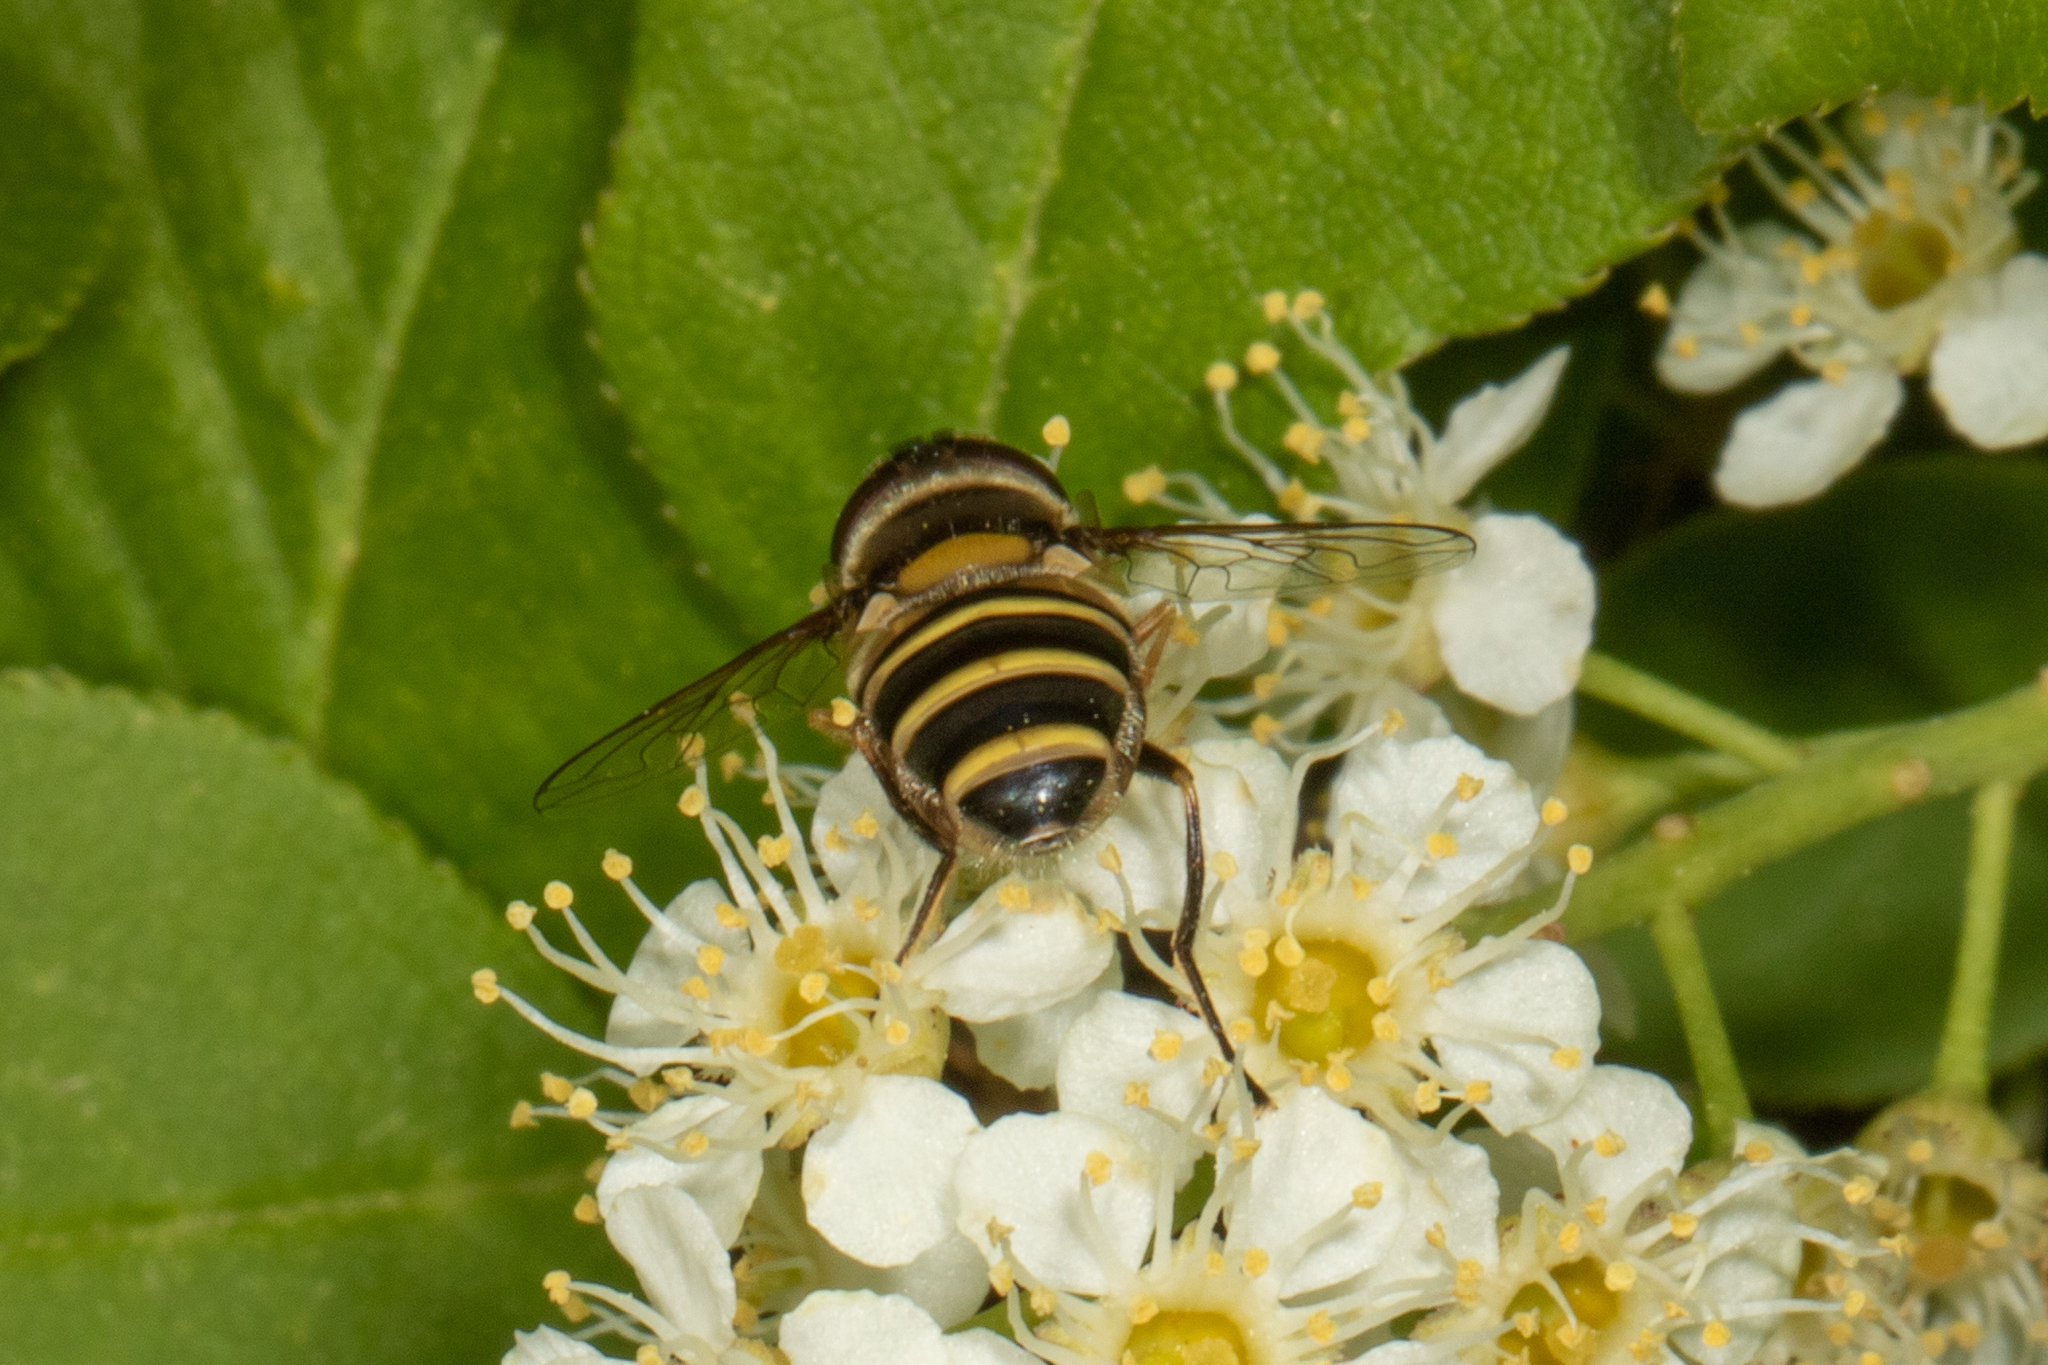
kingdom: Animalia
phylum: Arthropoda
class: Insecta
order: Diptera
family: Syrphidae
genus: Eristalis
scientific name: Eristalis transversa
